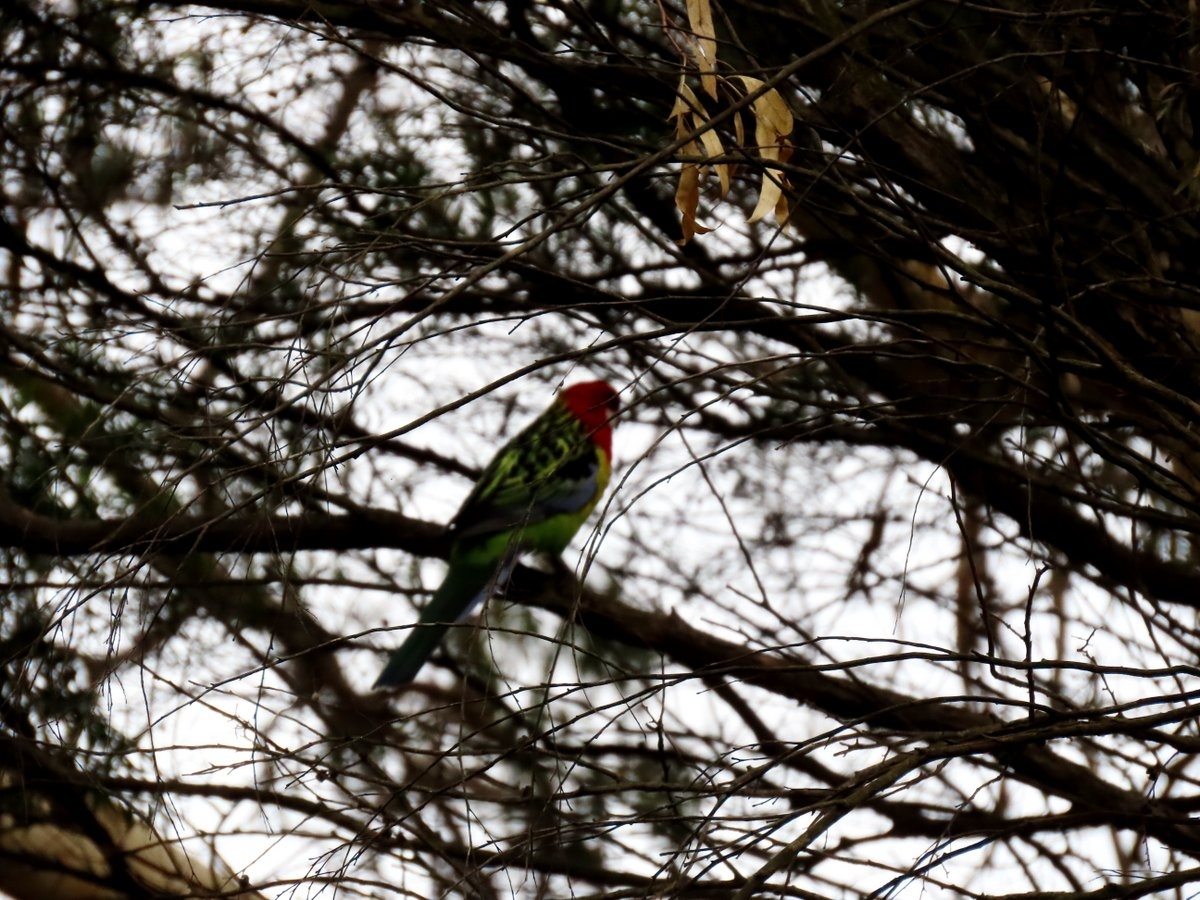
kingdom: Animalia
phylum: Chordata
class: Aves
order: Psittaciformes
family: Psittacidae
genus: Platycercus
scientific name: Platycercus eximius
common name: Eastern rosella
